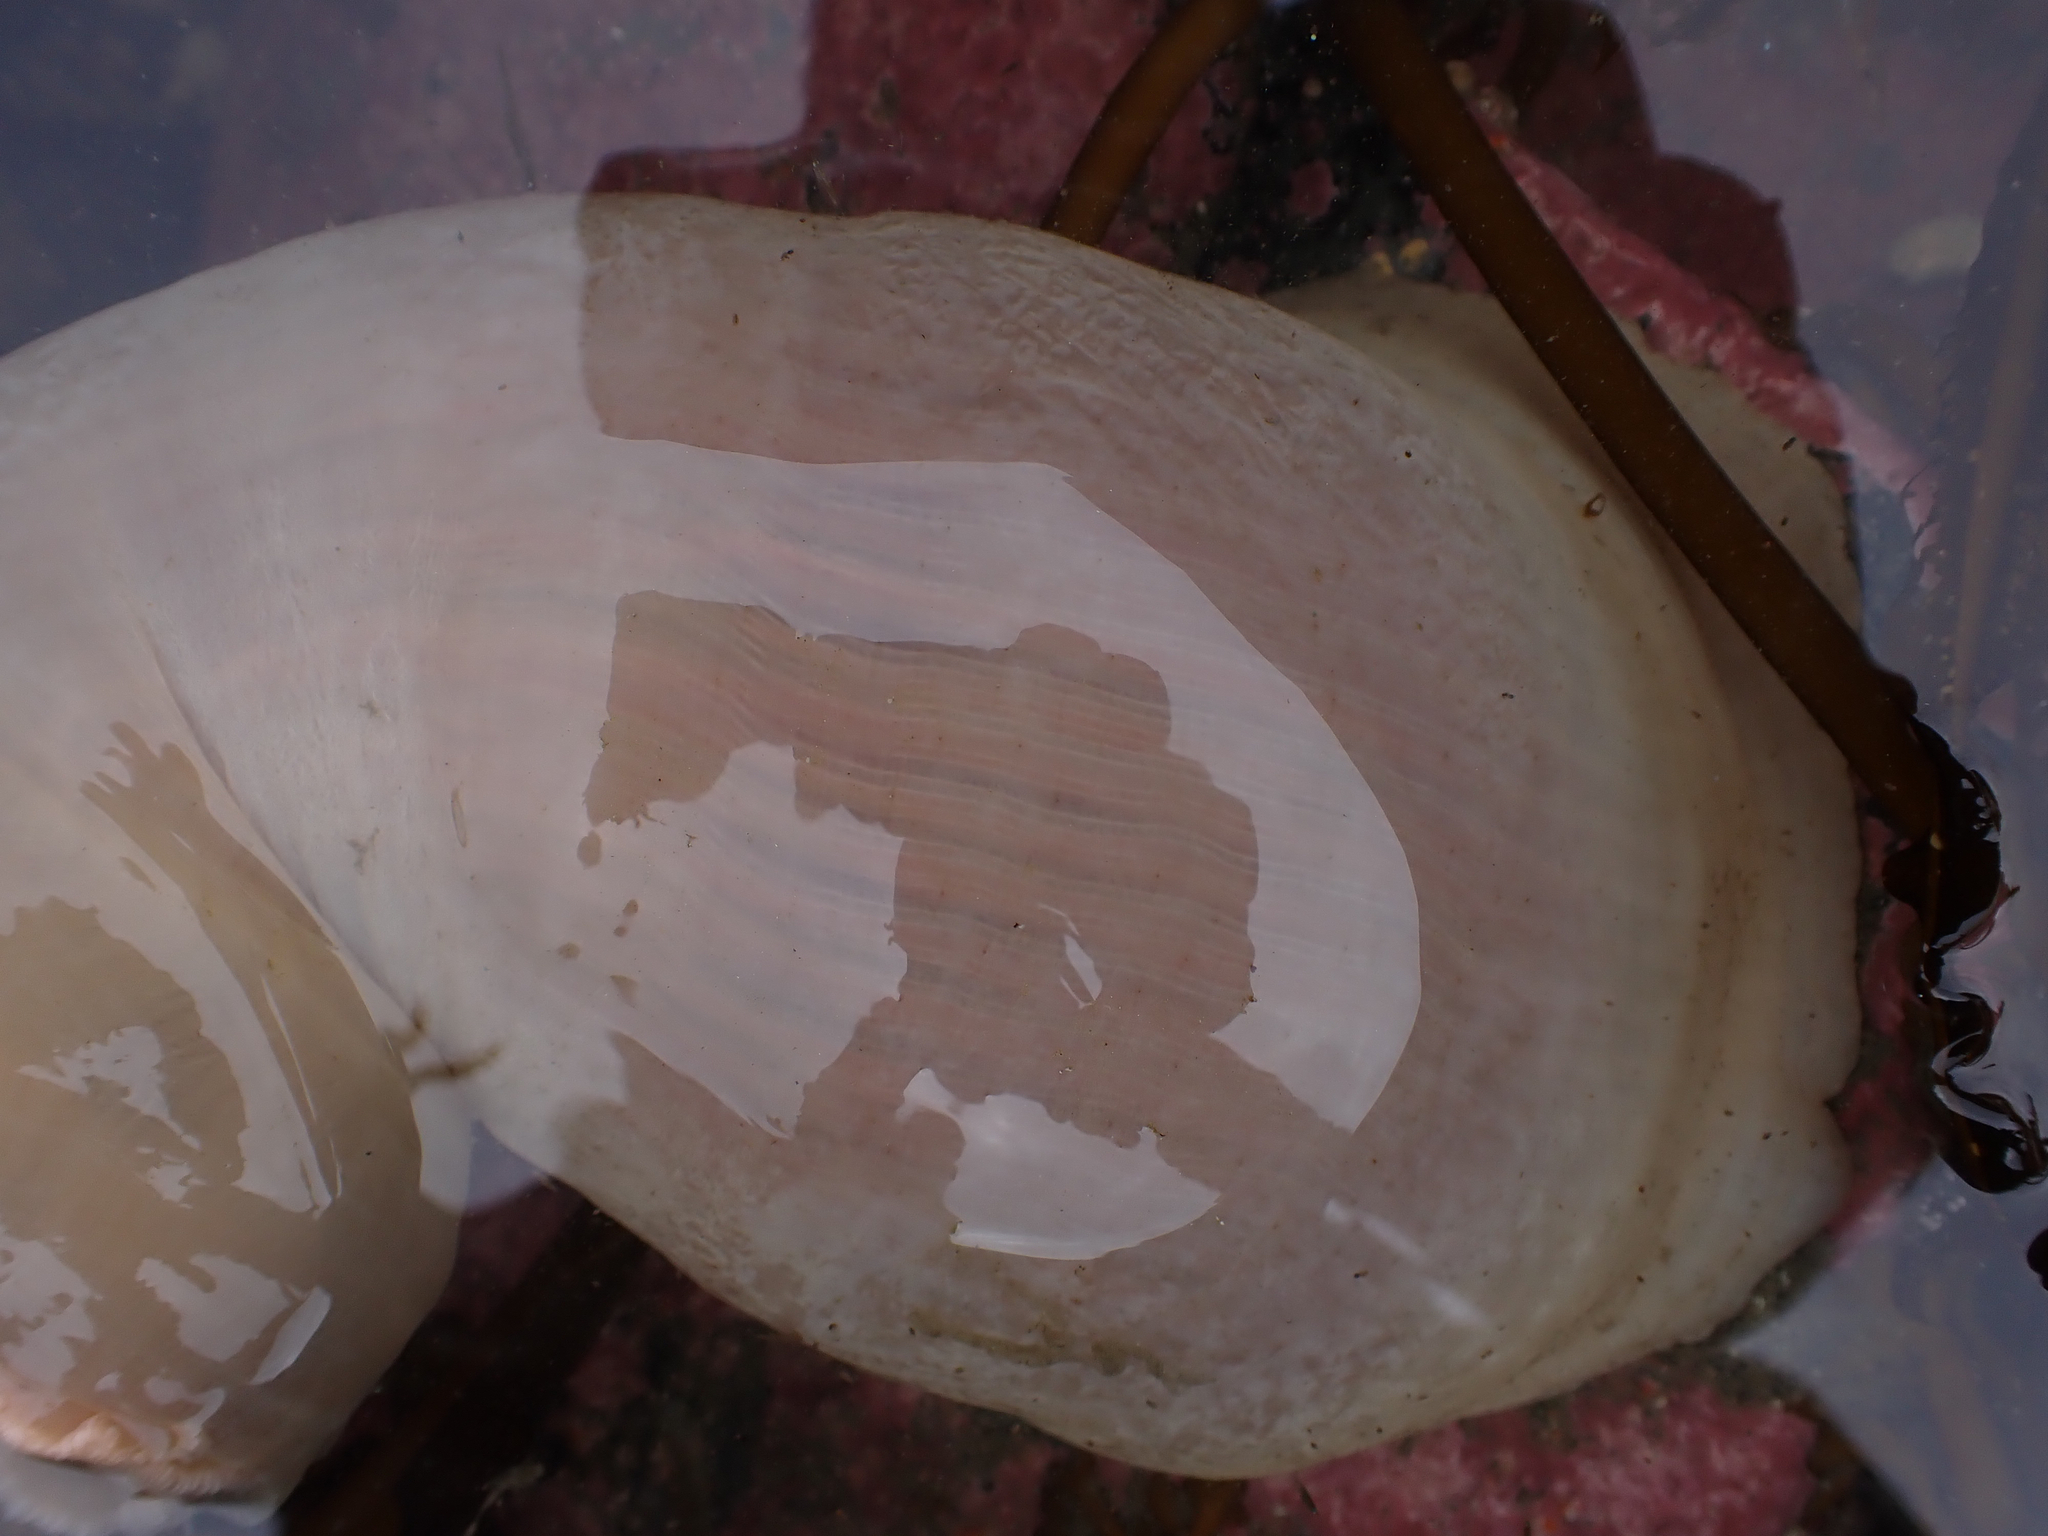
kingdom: Animalia
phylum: Cnidaria
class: Anthozoa
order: Actiniaria
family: Metridiidae
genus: Metridium
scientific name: Metridium farcimen
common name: Gigantic anemone
